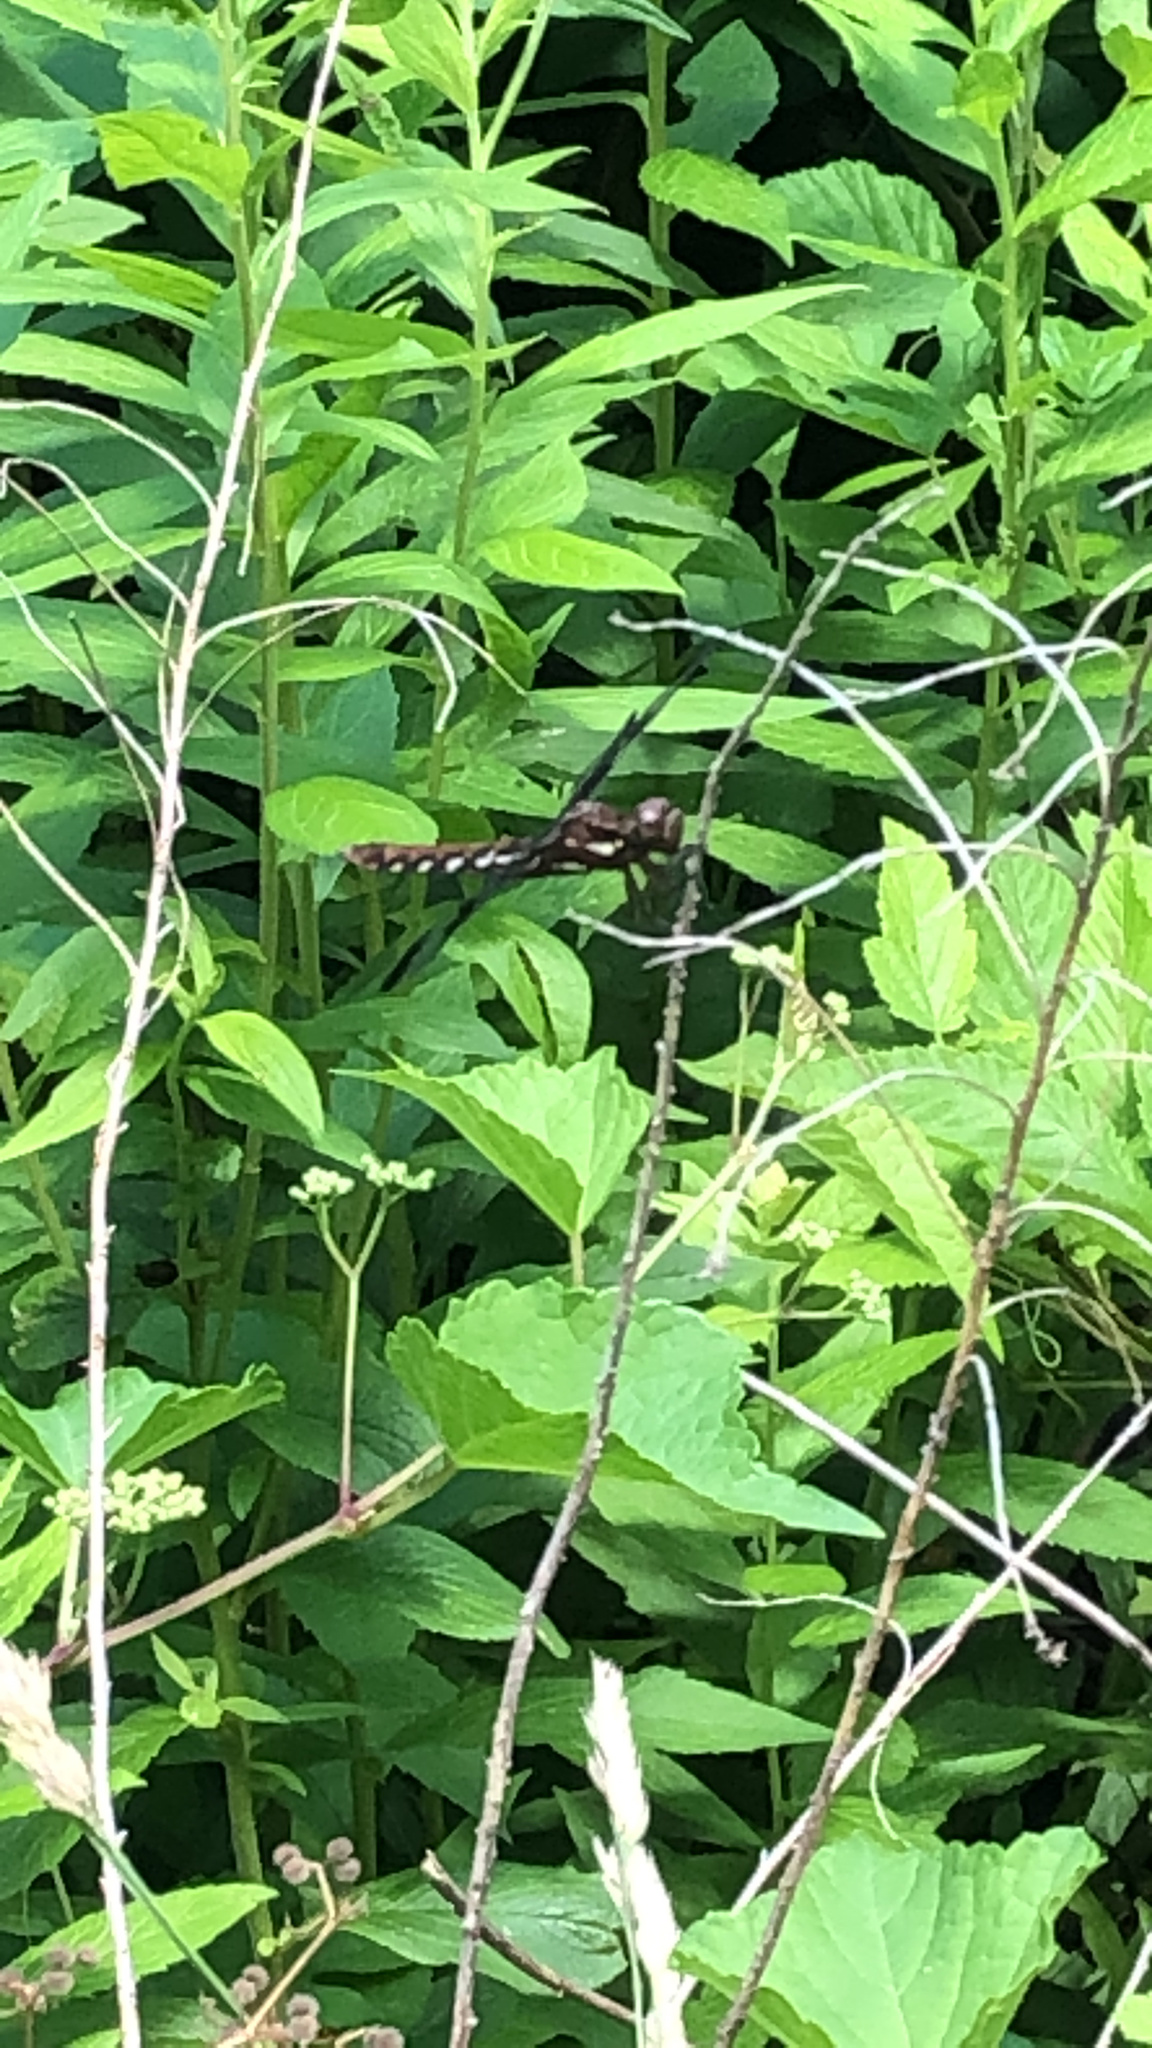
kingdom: Animalia
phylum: Arthropoda
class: Insecta
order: Odonata
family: Libellulidae
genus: Plathemis
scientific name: Plathemis lydia
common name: Common whitetail
